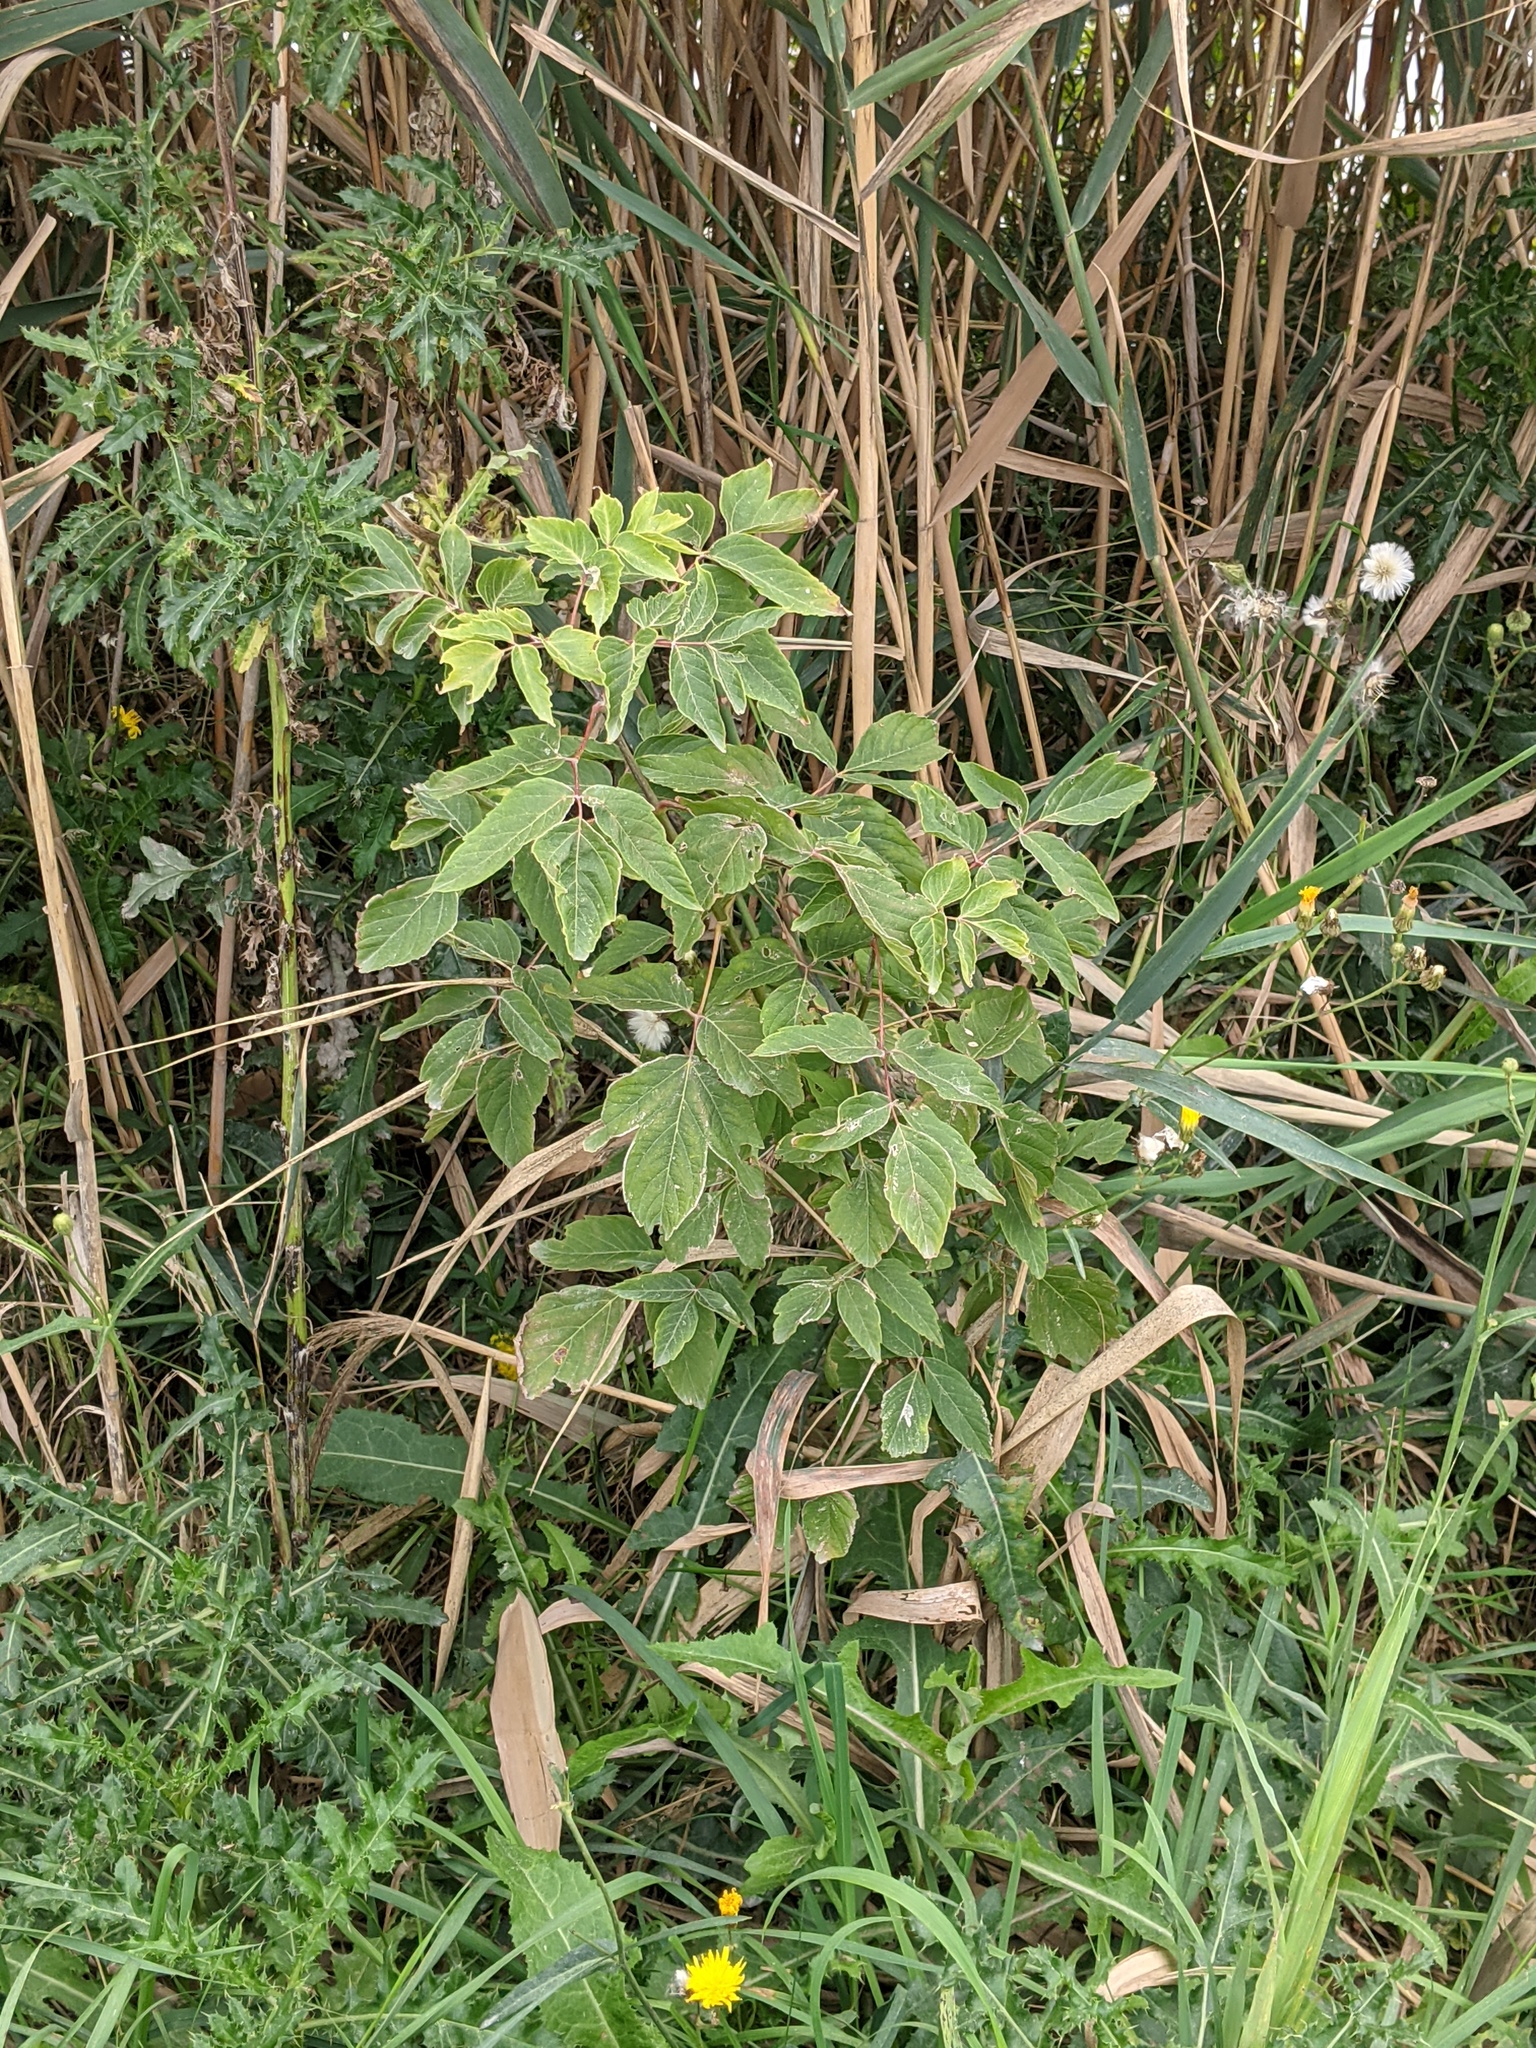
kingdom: Plantae
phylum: Tracheophyta
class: Magnoliopsida
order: Sapindales
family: Sapindaceae
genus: Acer
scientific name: Acer negundo
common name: Ashleaf maple
